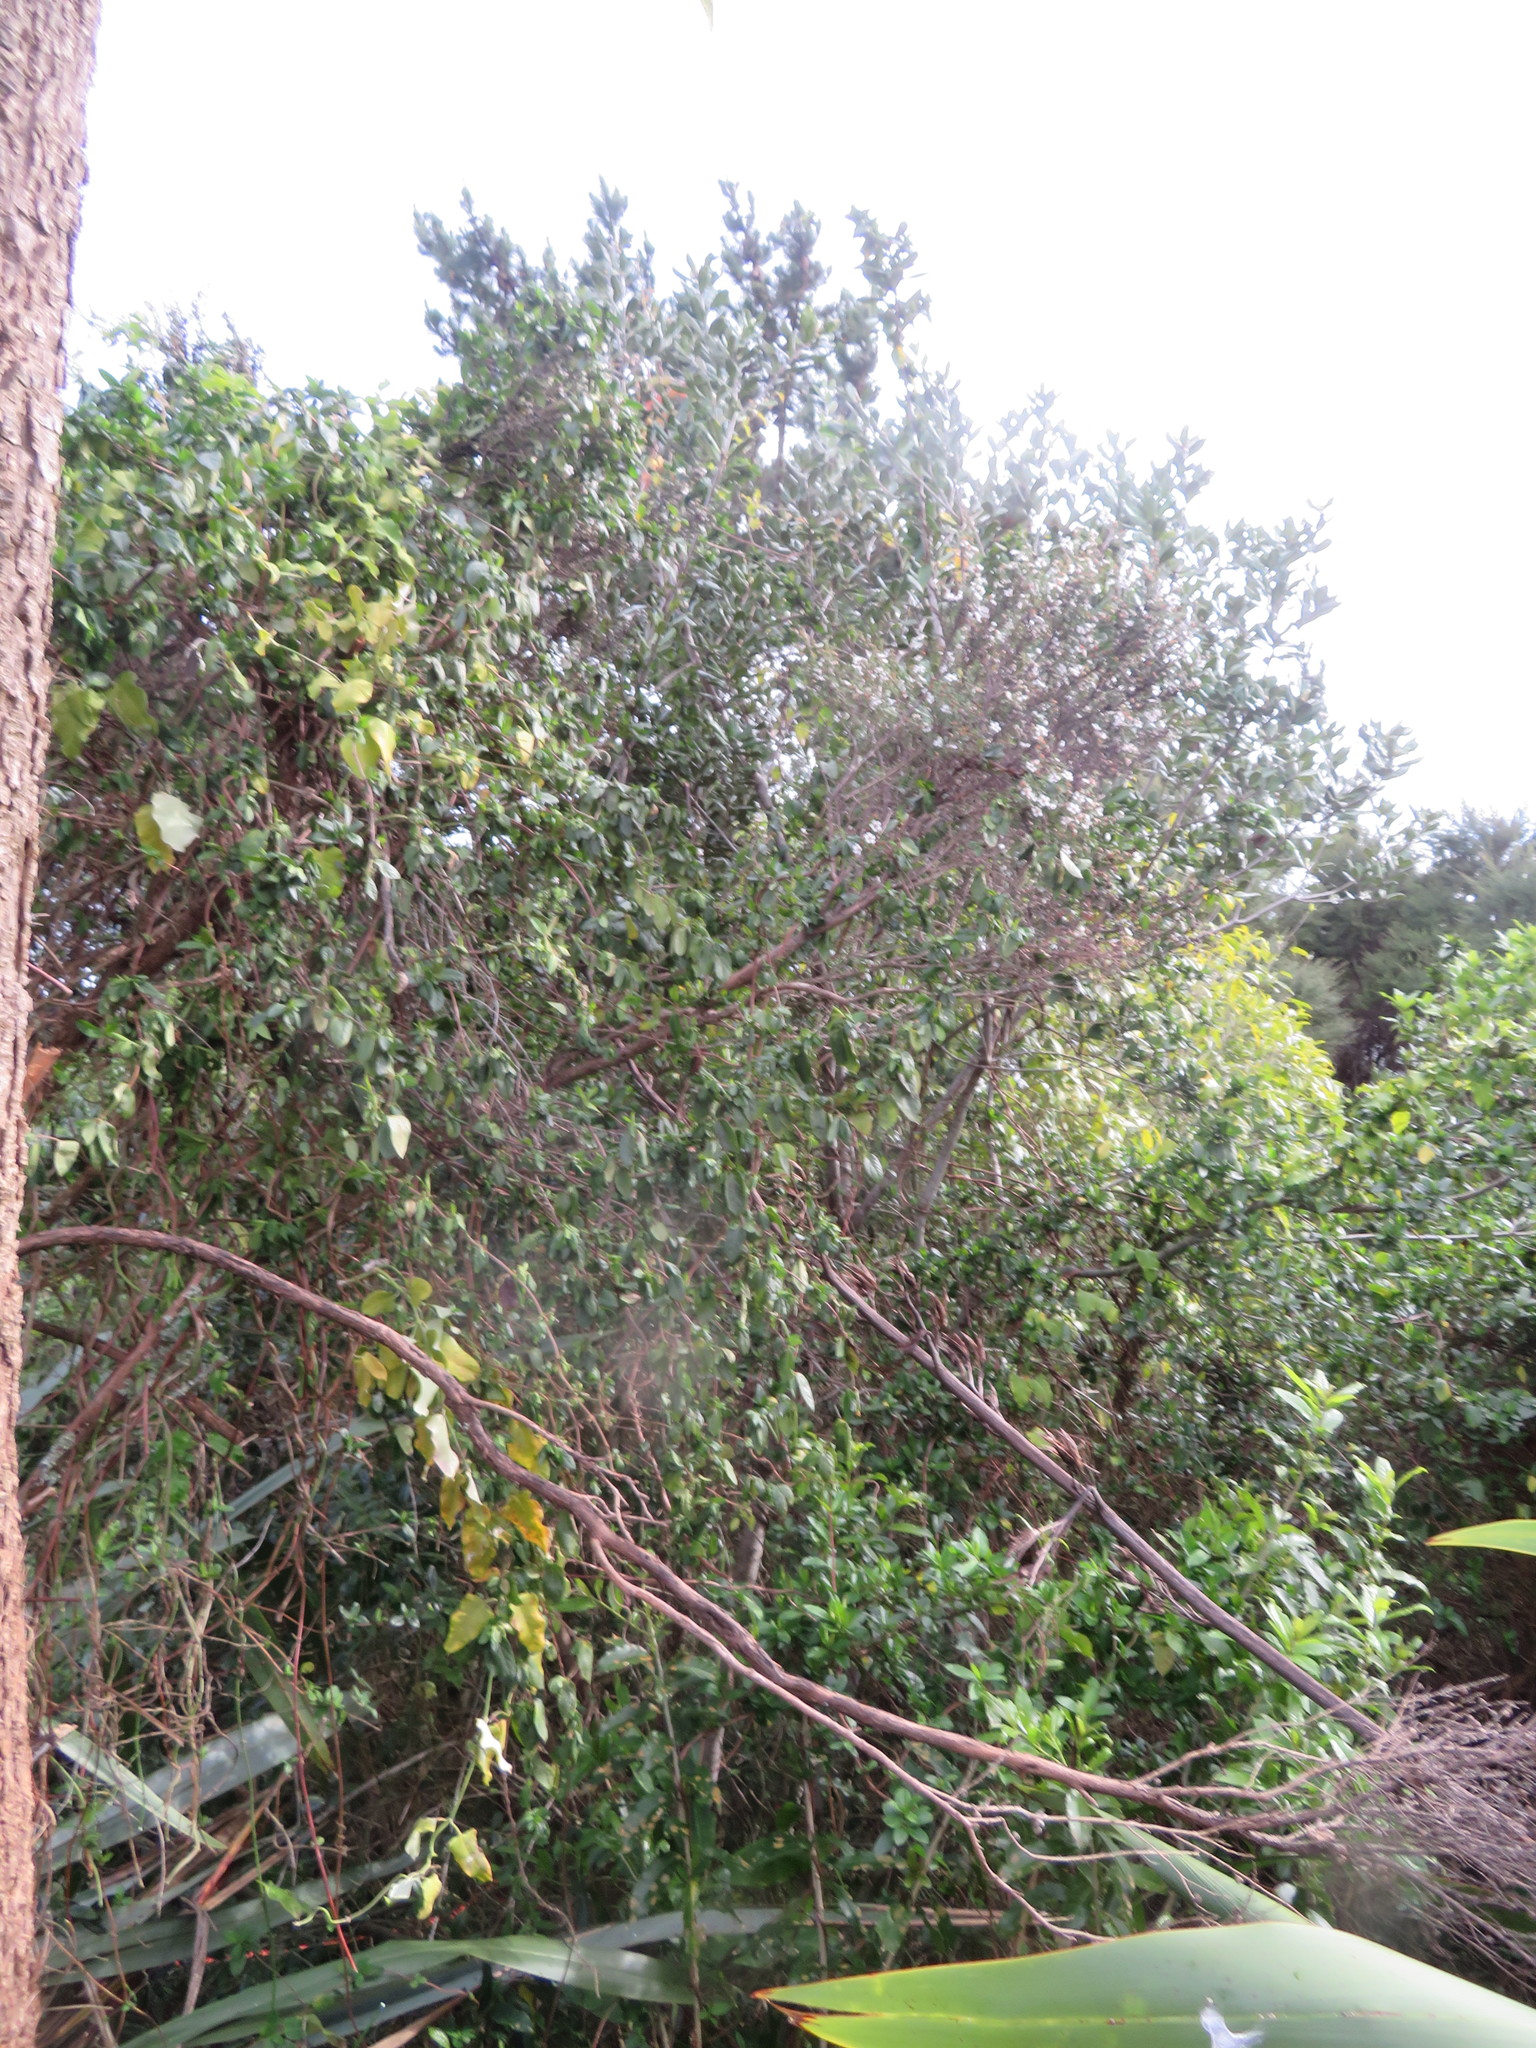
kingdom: Plantae
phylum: Tracheophyta
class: Magnoliopsida
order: Myrtales
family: Myrtaceae
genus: Metrosideros
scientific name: Metrosideros excelsa
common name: New zealand christmastree
